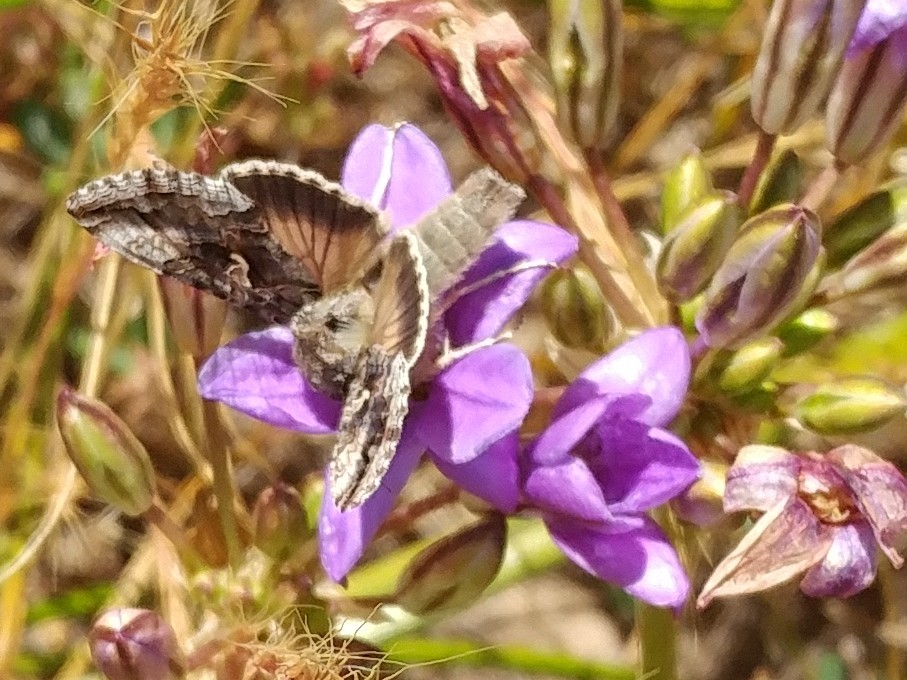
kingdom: Animalia
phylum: Arthropoda
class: Insecta
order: Lepidoptera
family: Noctuidae
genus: Autographa
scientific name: Autographa californica
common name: Alfalfa looper
